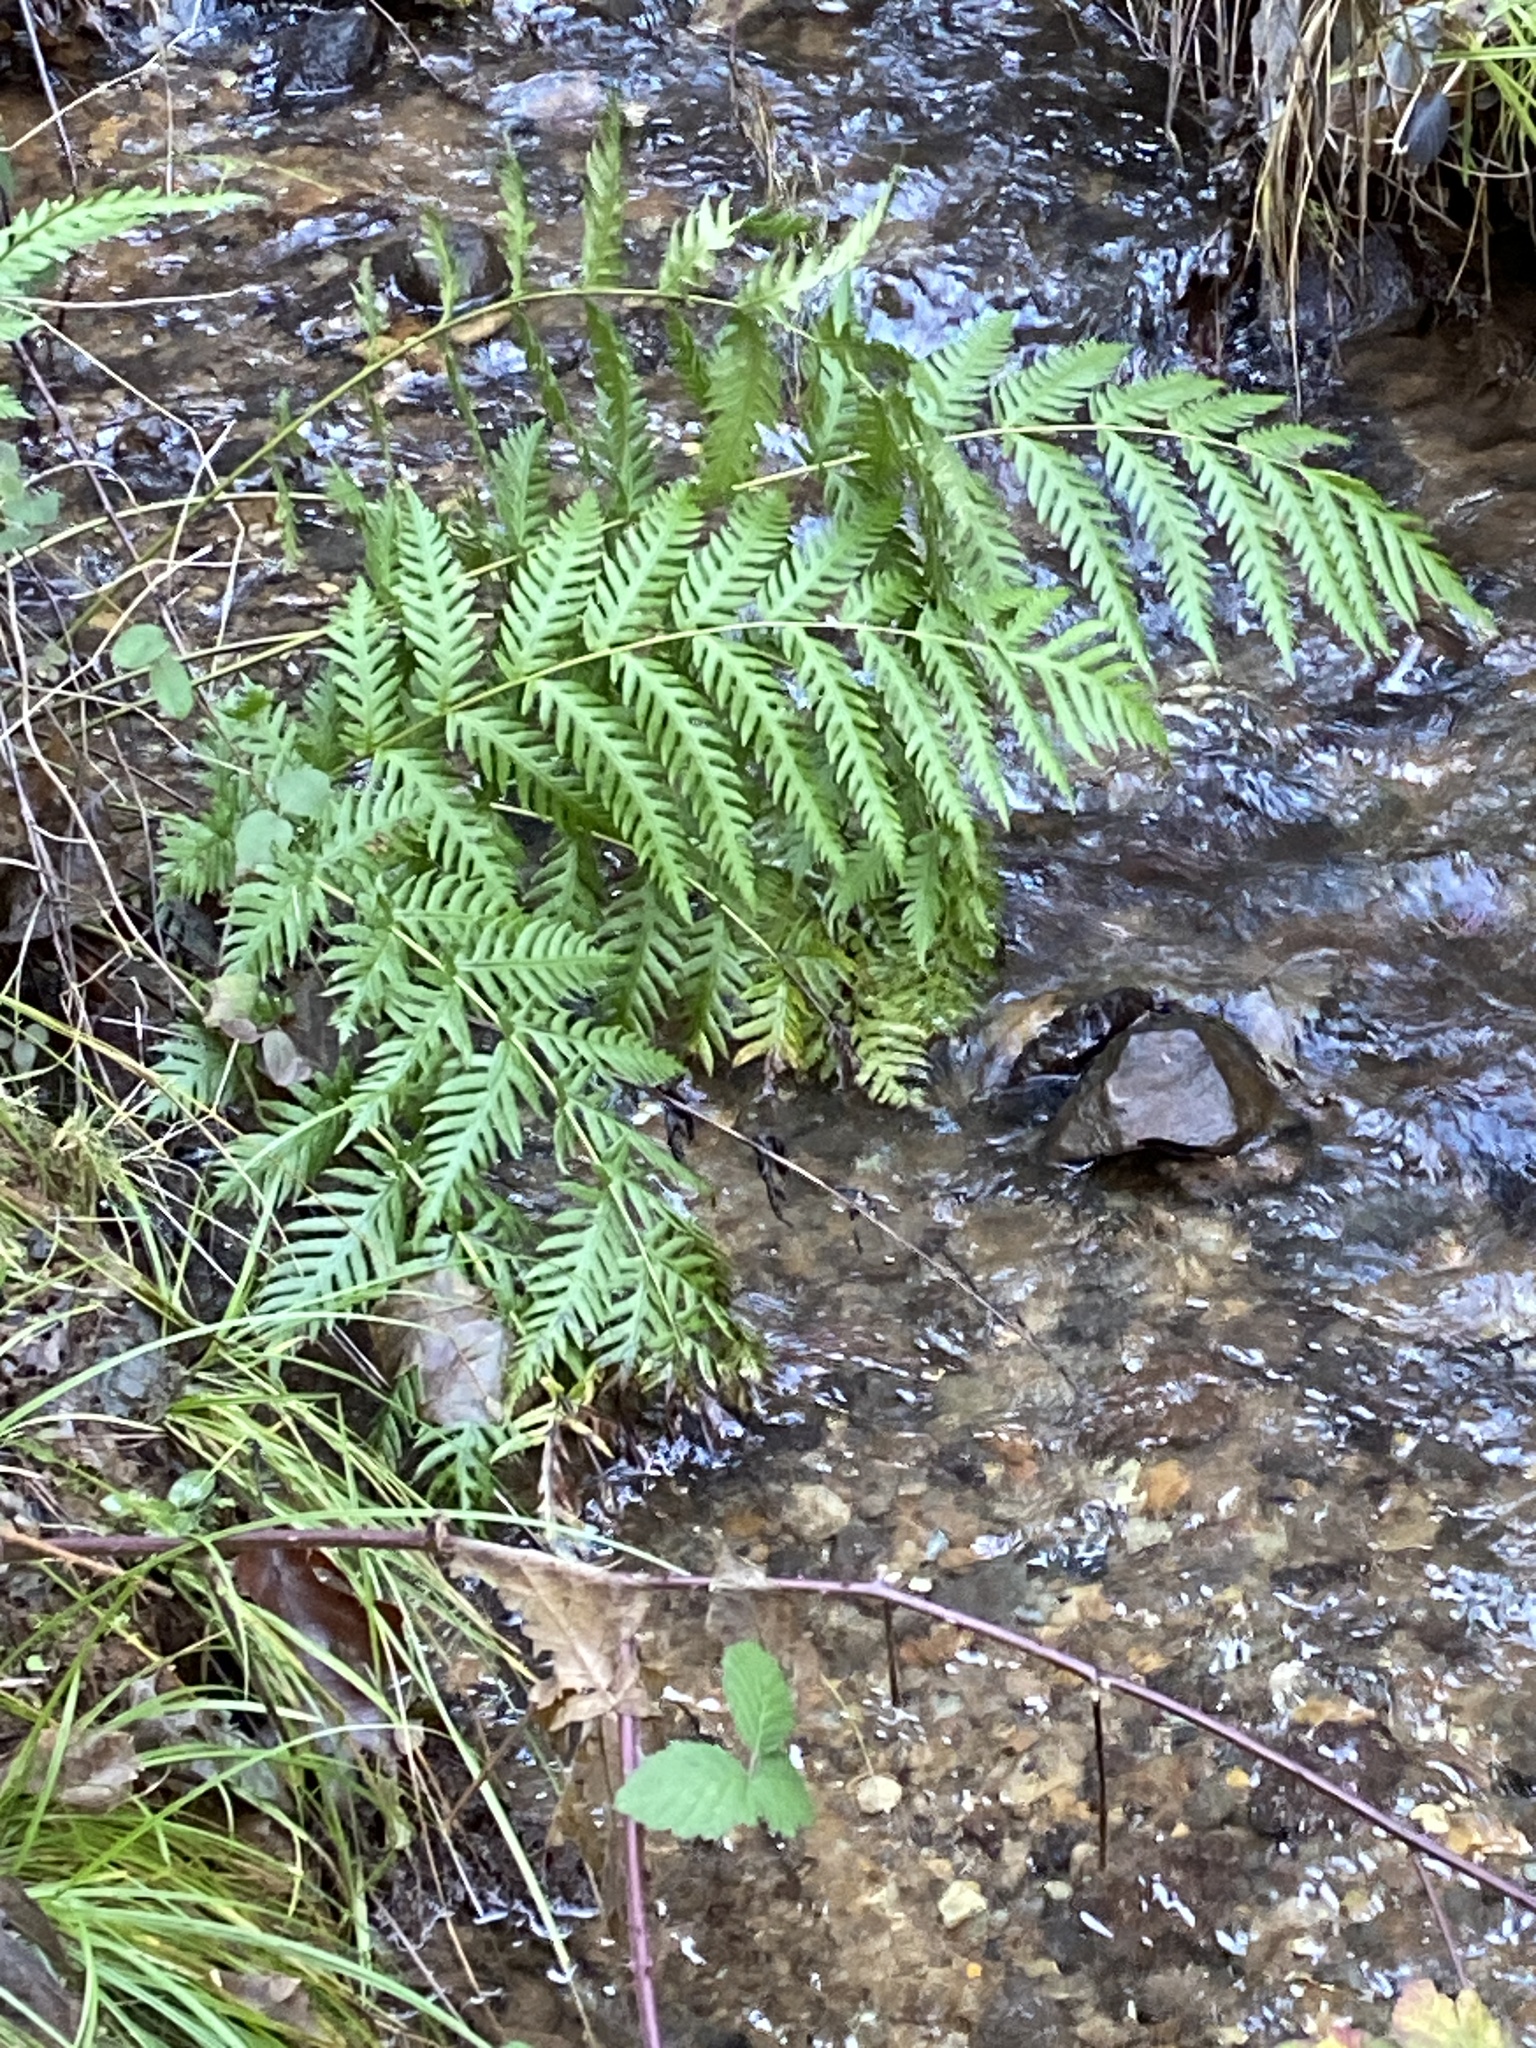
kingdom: Plantae
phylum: Tracheophyta
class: Polypodiopsida
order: Polypodiales
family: Blechnaceae
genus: Woodwardia
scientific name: Woodwardia fimbriata
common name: Giant chain fern
